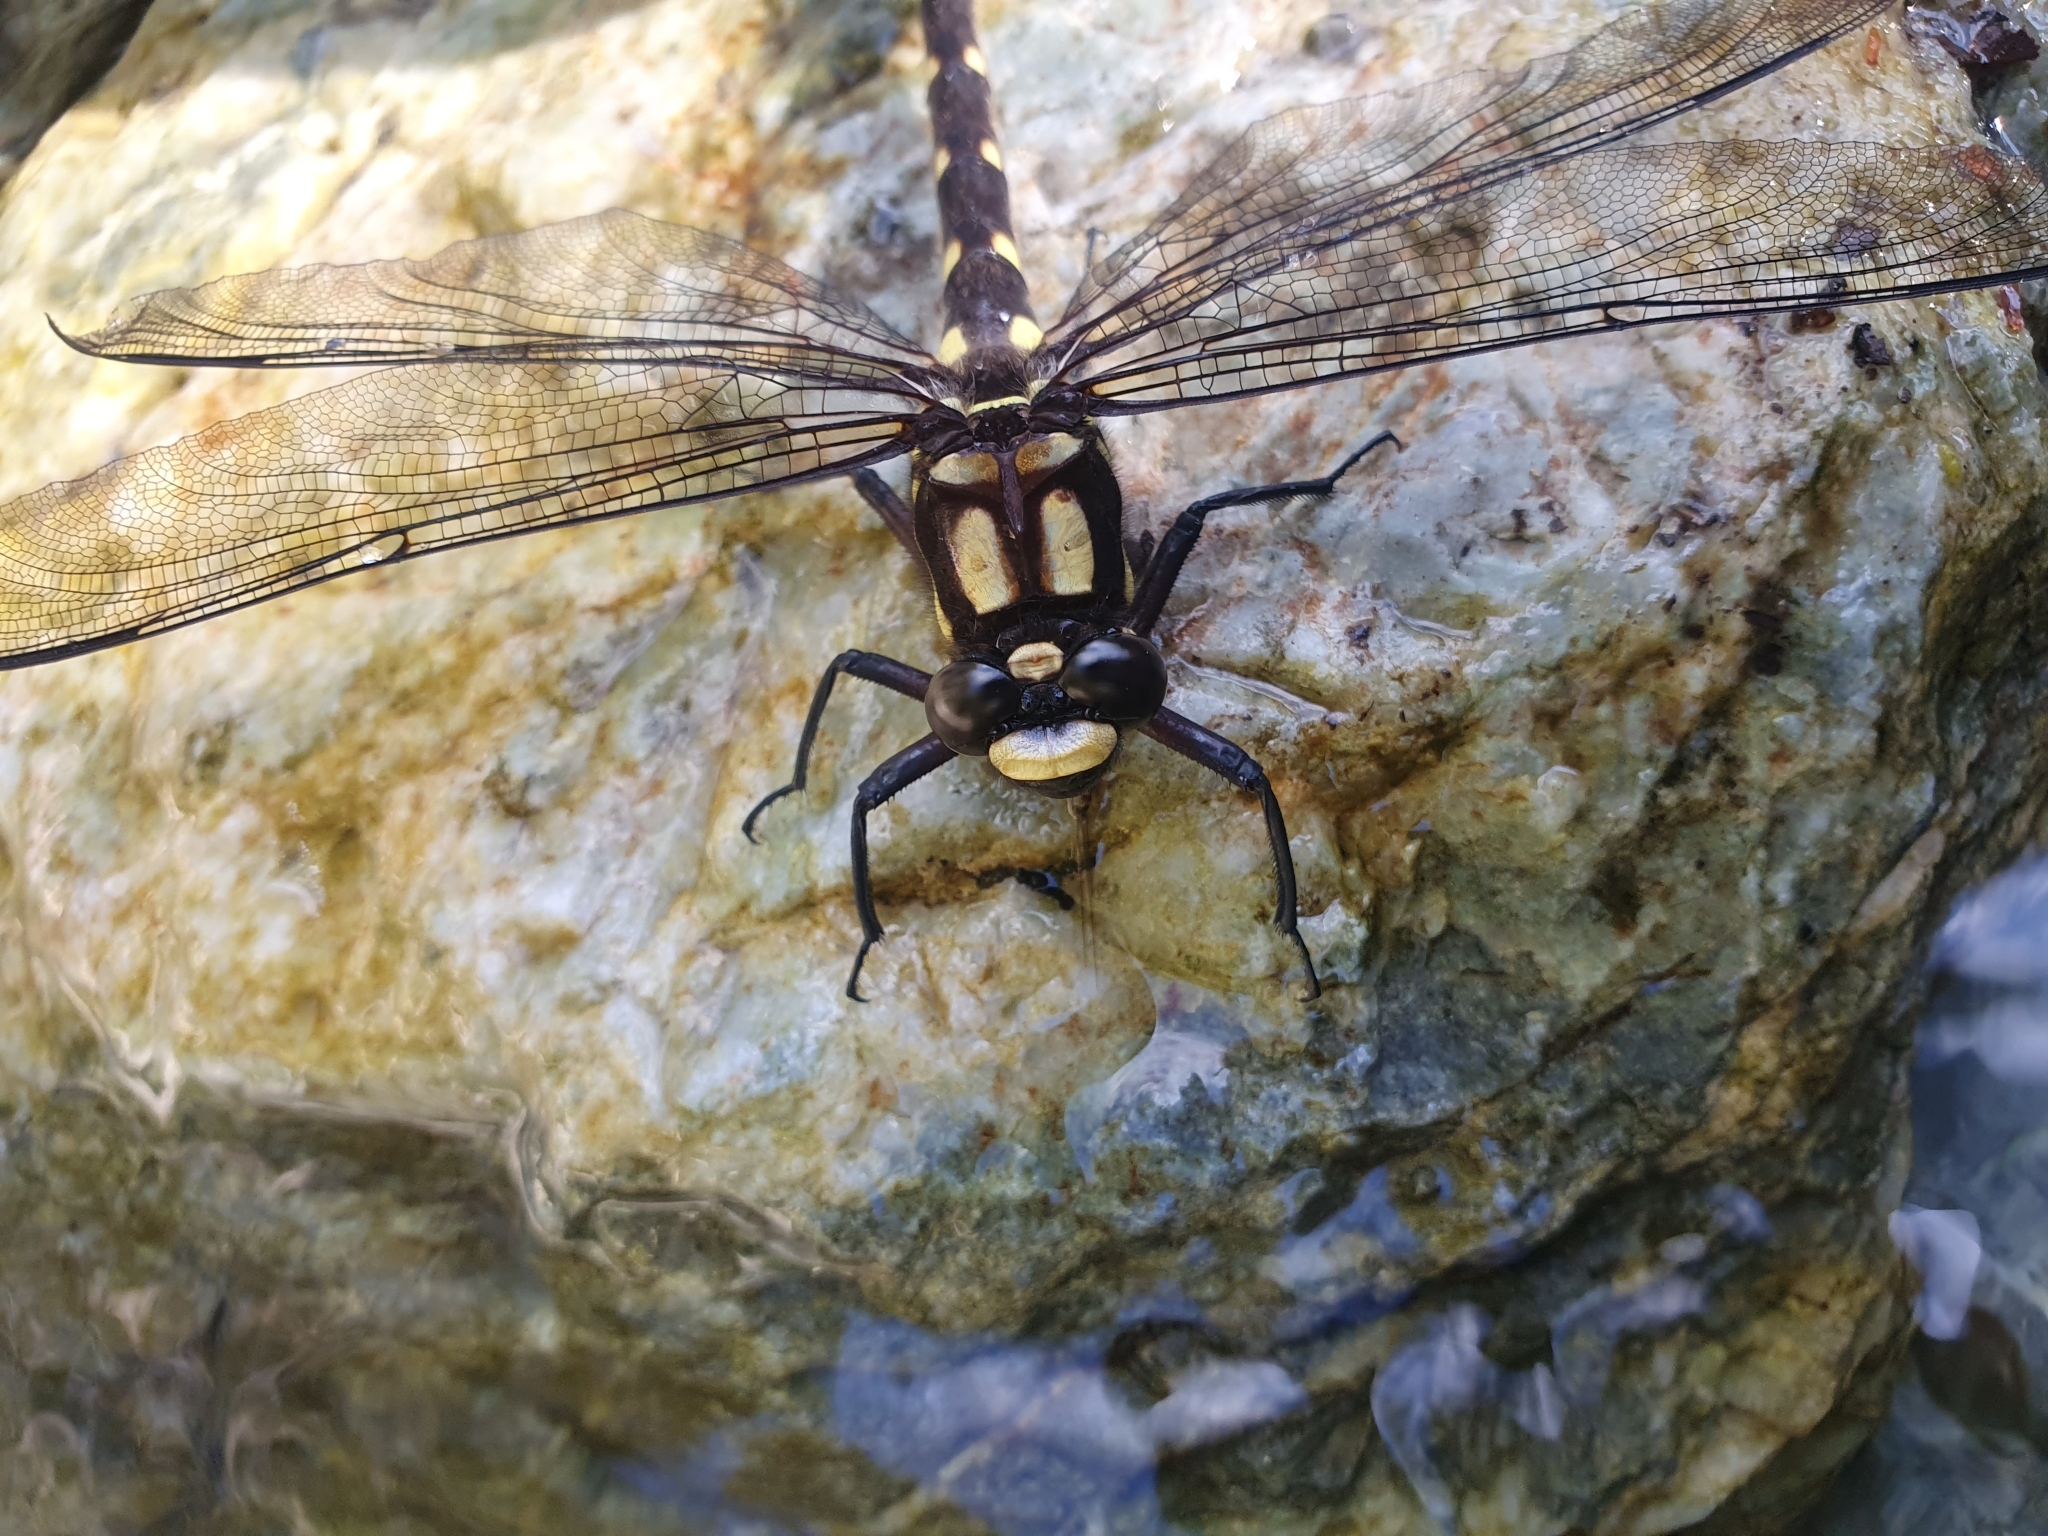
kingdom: Animalia
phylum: Arthropoda
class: Insecta
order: Odonata
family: Petaluridae
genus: Uropetala
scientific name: Uropetala carovei
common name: Bush giant dragonfly
